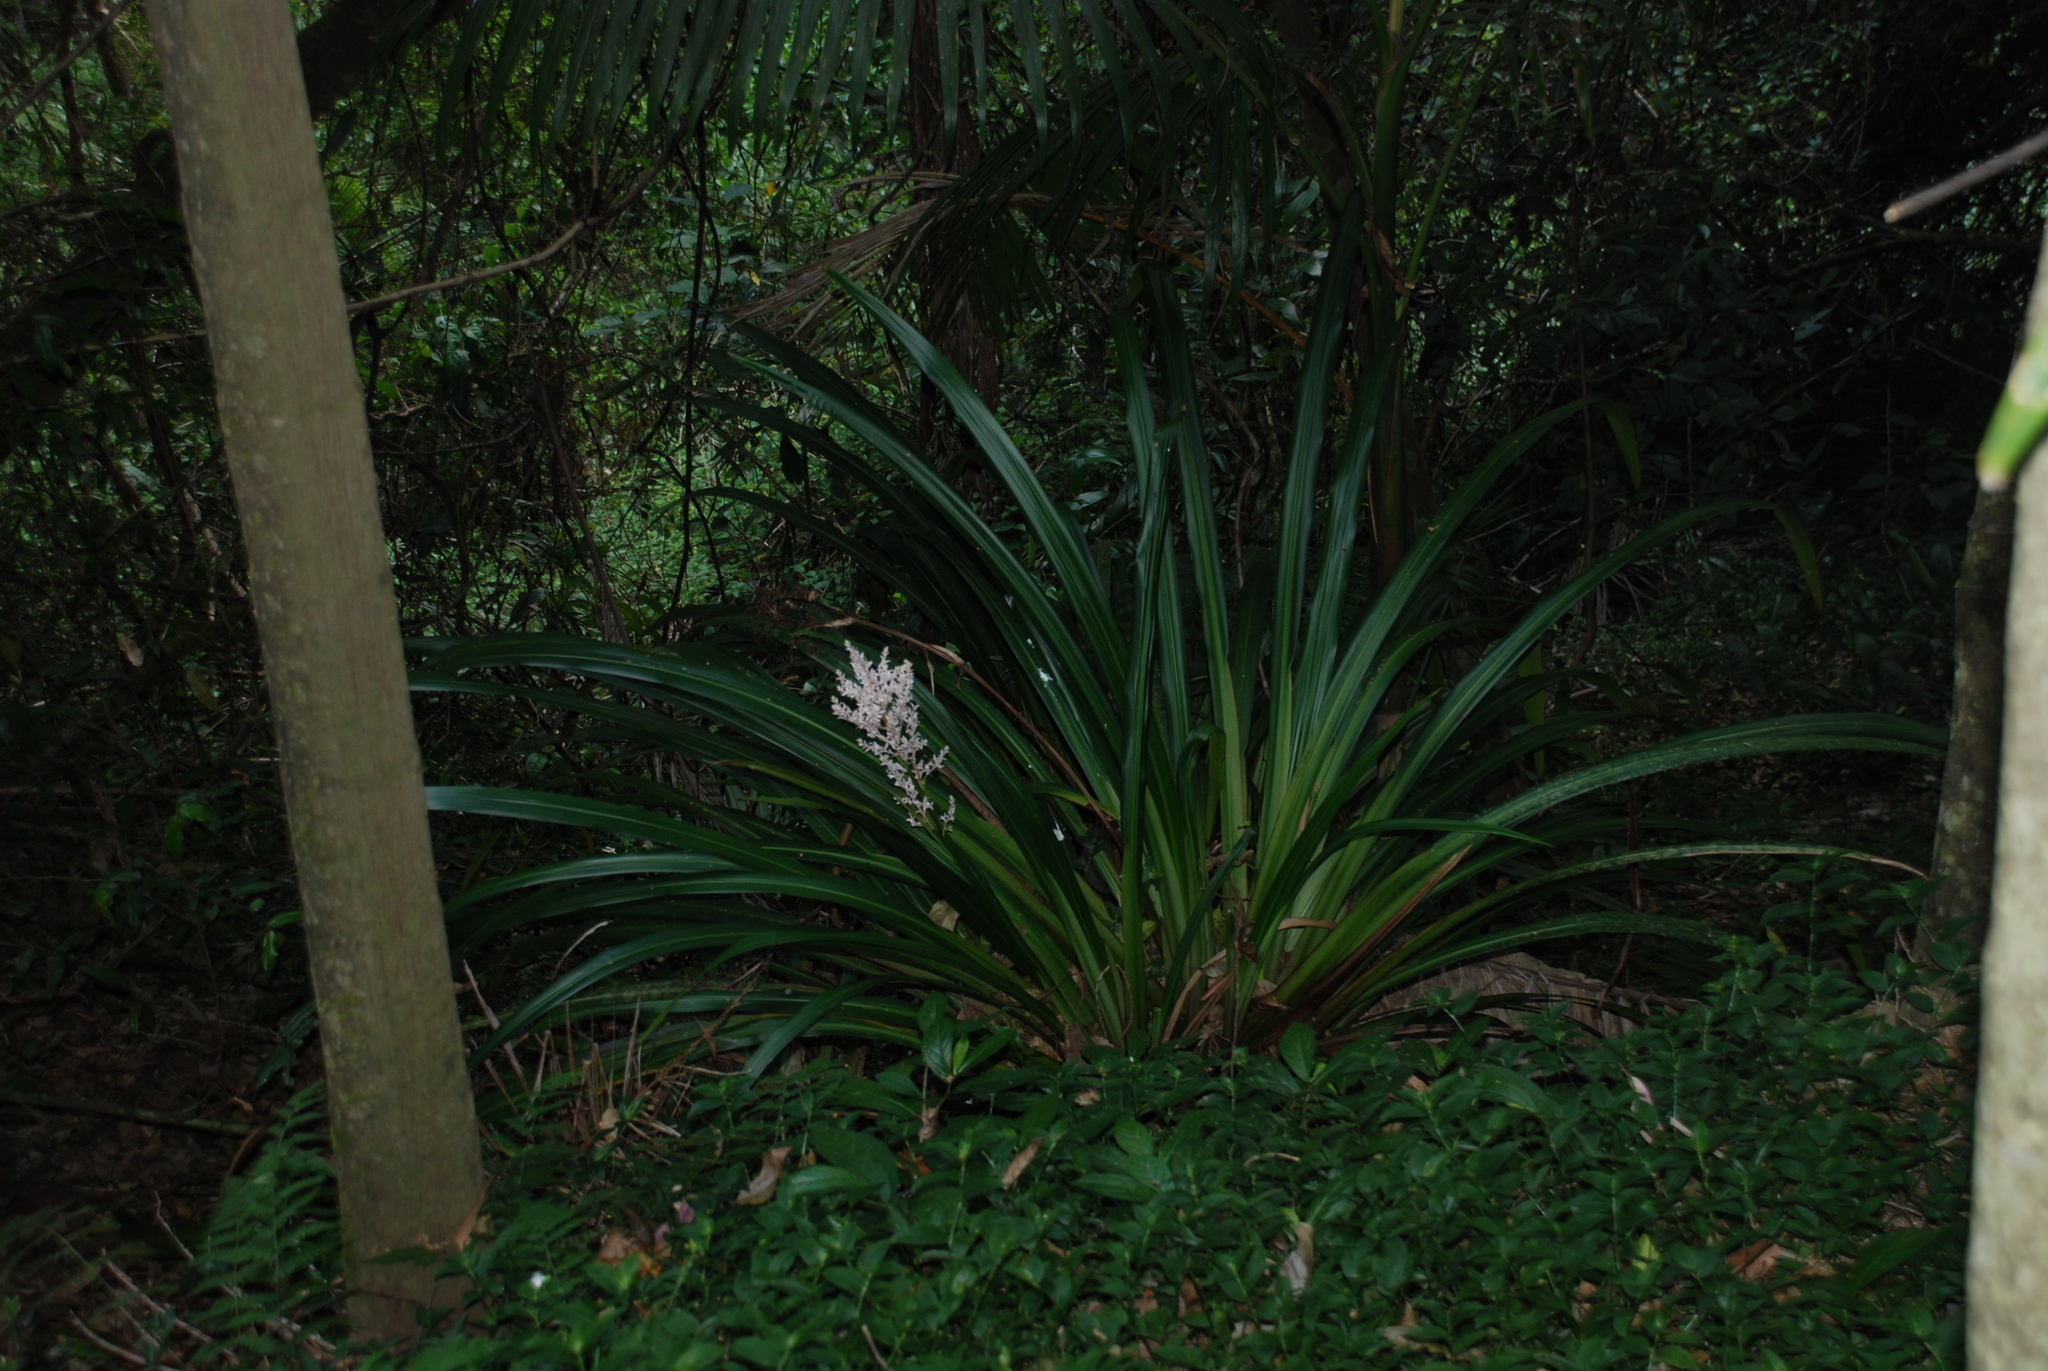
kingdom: Plantae
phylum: Tracheophyta
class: Liliopsida
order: Commelinales
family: Philydraceae
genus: Helmholtzia
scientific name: Helmholtzia glaberrima
